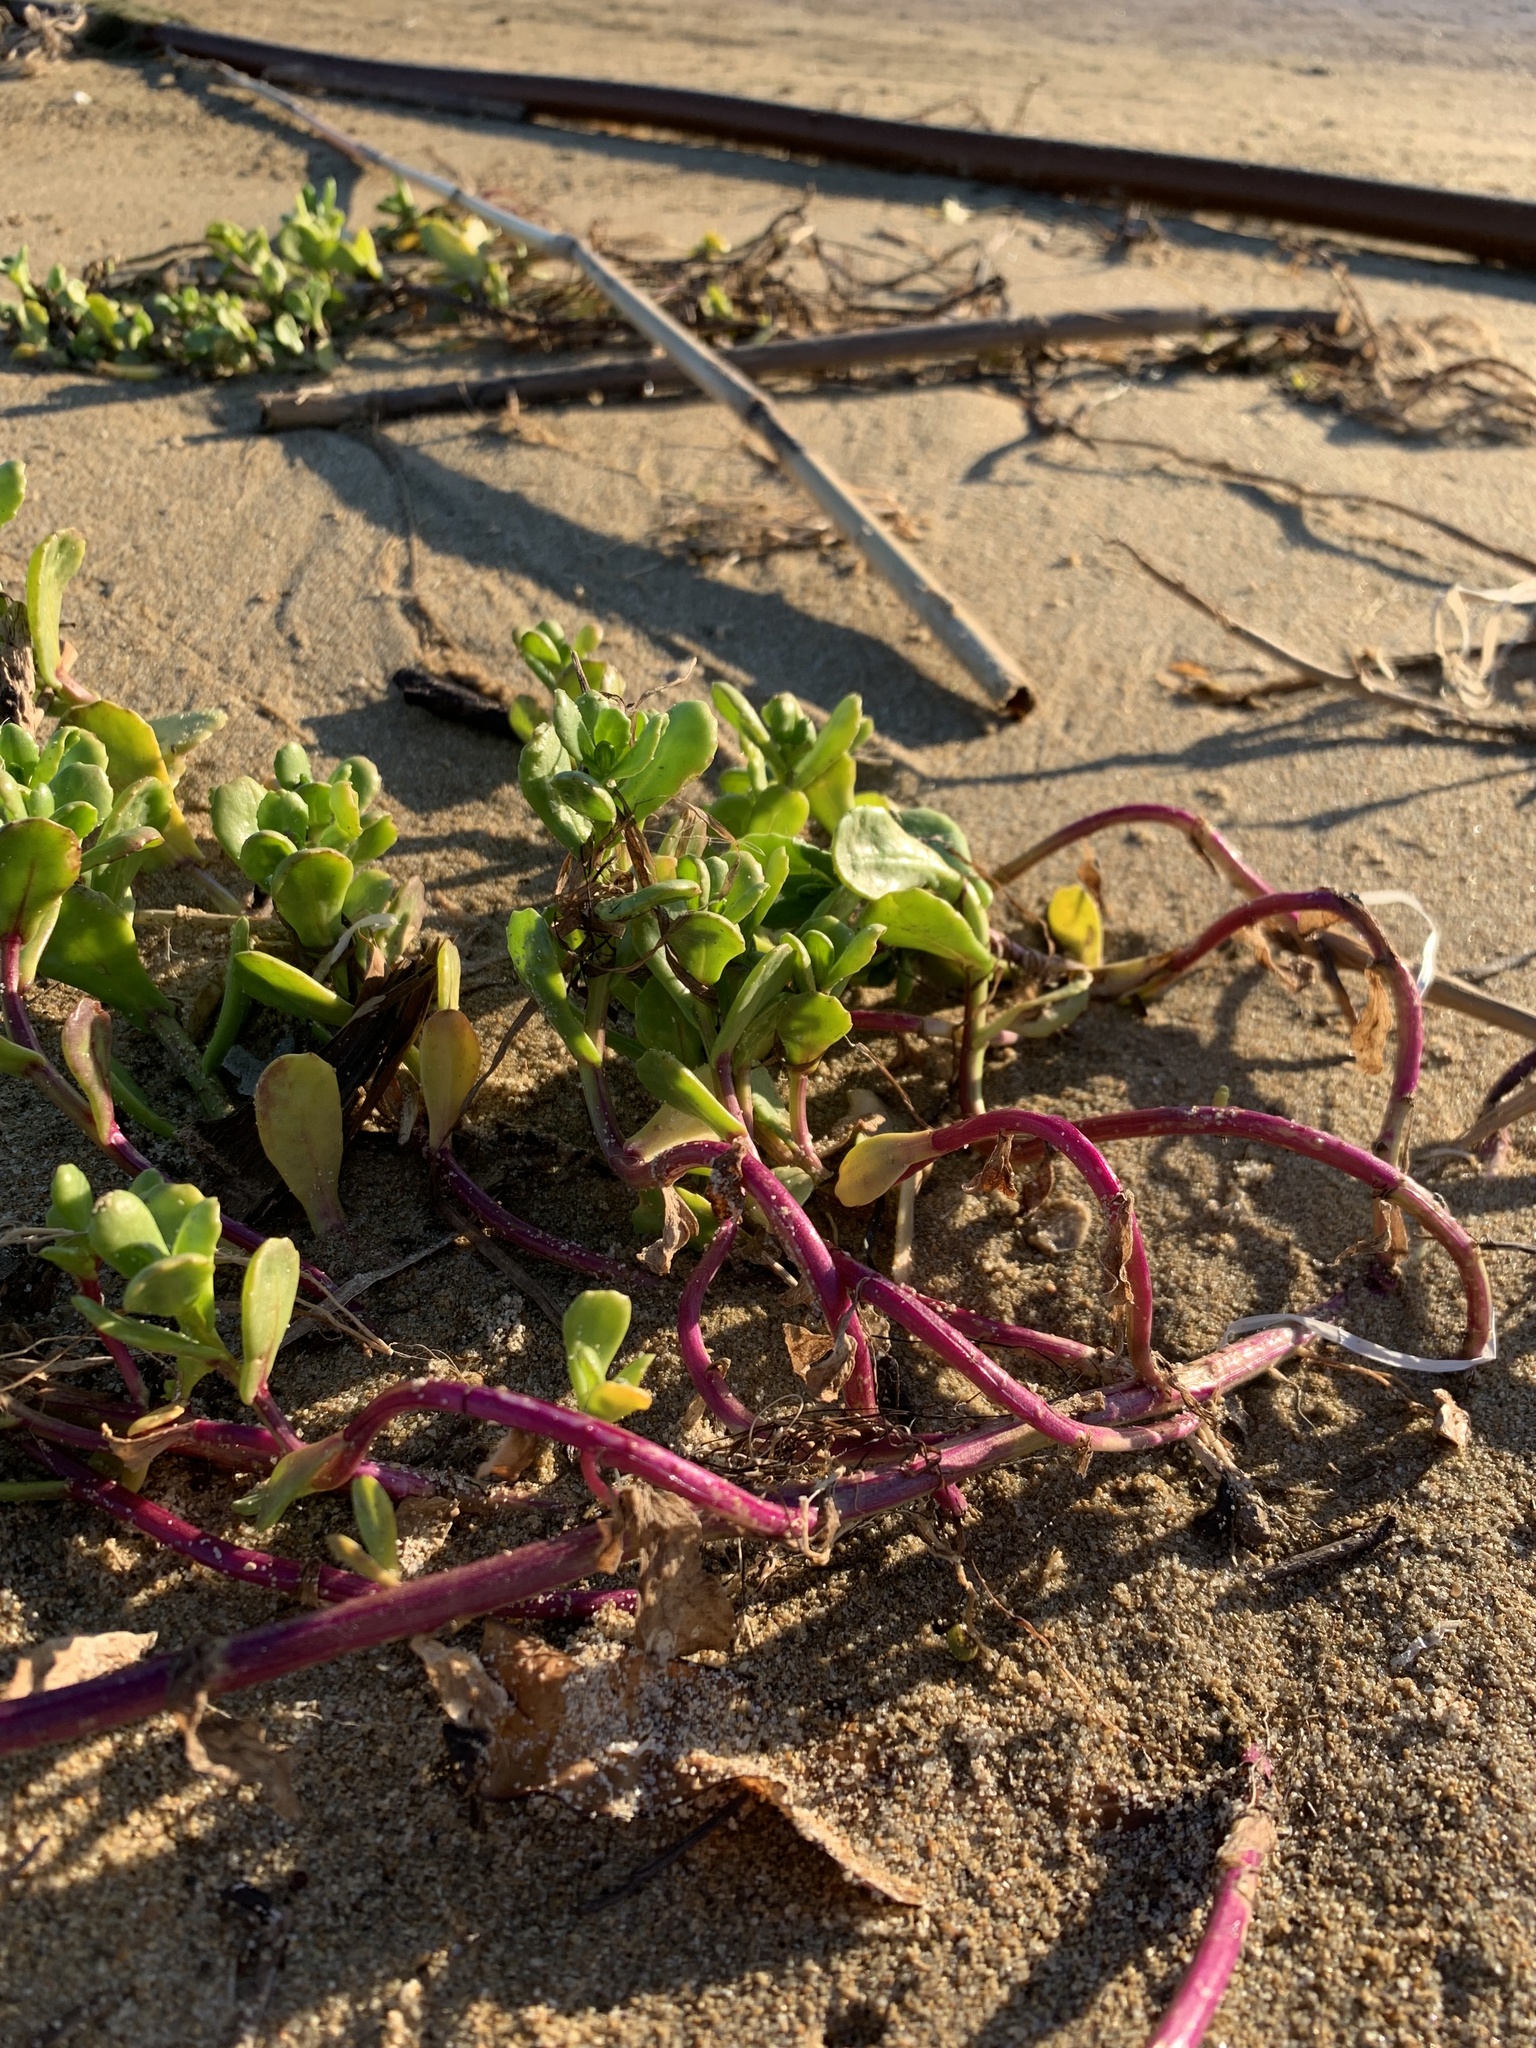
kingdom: Plantae
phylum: Tracheophyta
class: Magnoliopsida
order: Asterales
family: Asteraceae
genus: Senecio
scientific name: Senecio maritimus
